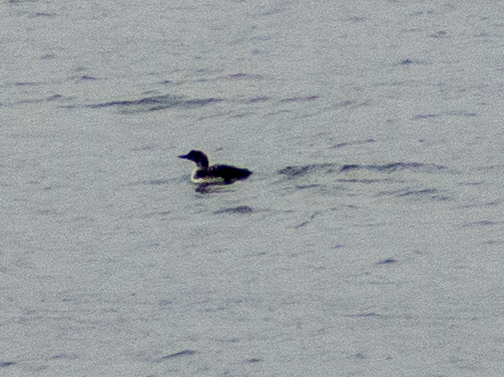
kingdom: Animalia
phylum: Chordata
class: Aves
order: Charadriiformes
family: Alcidae
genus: Uria
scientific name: Uria aalge
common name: Common murre
